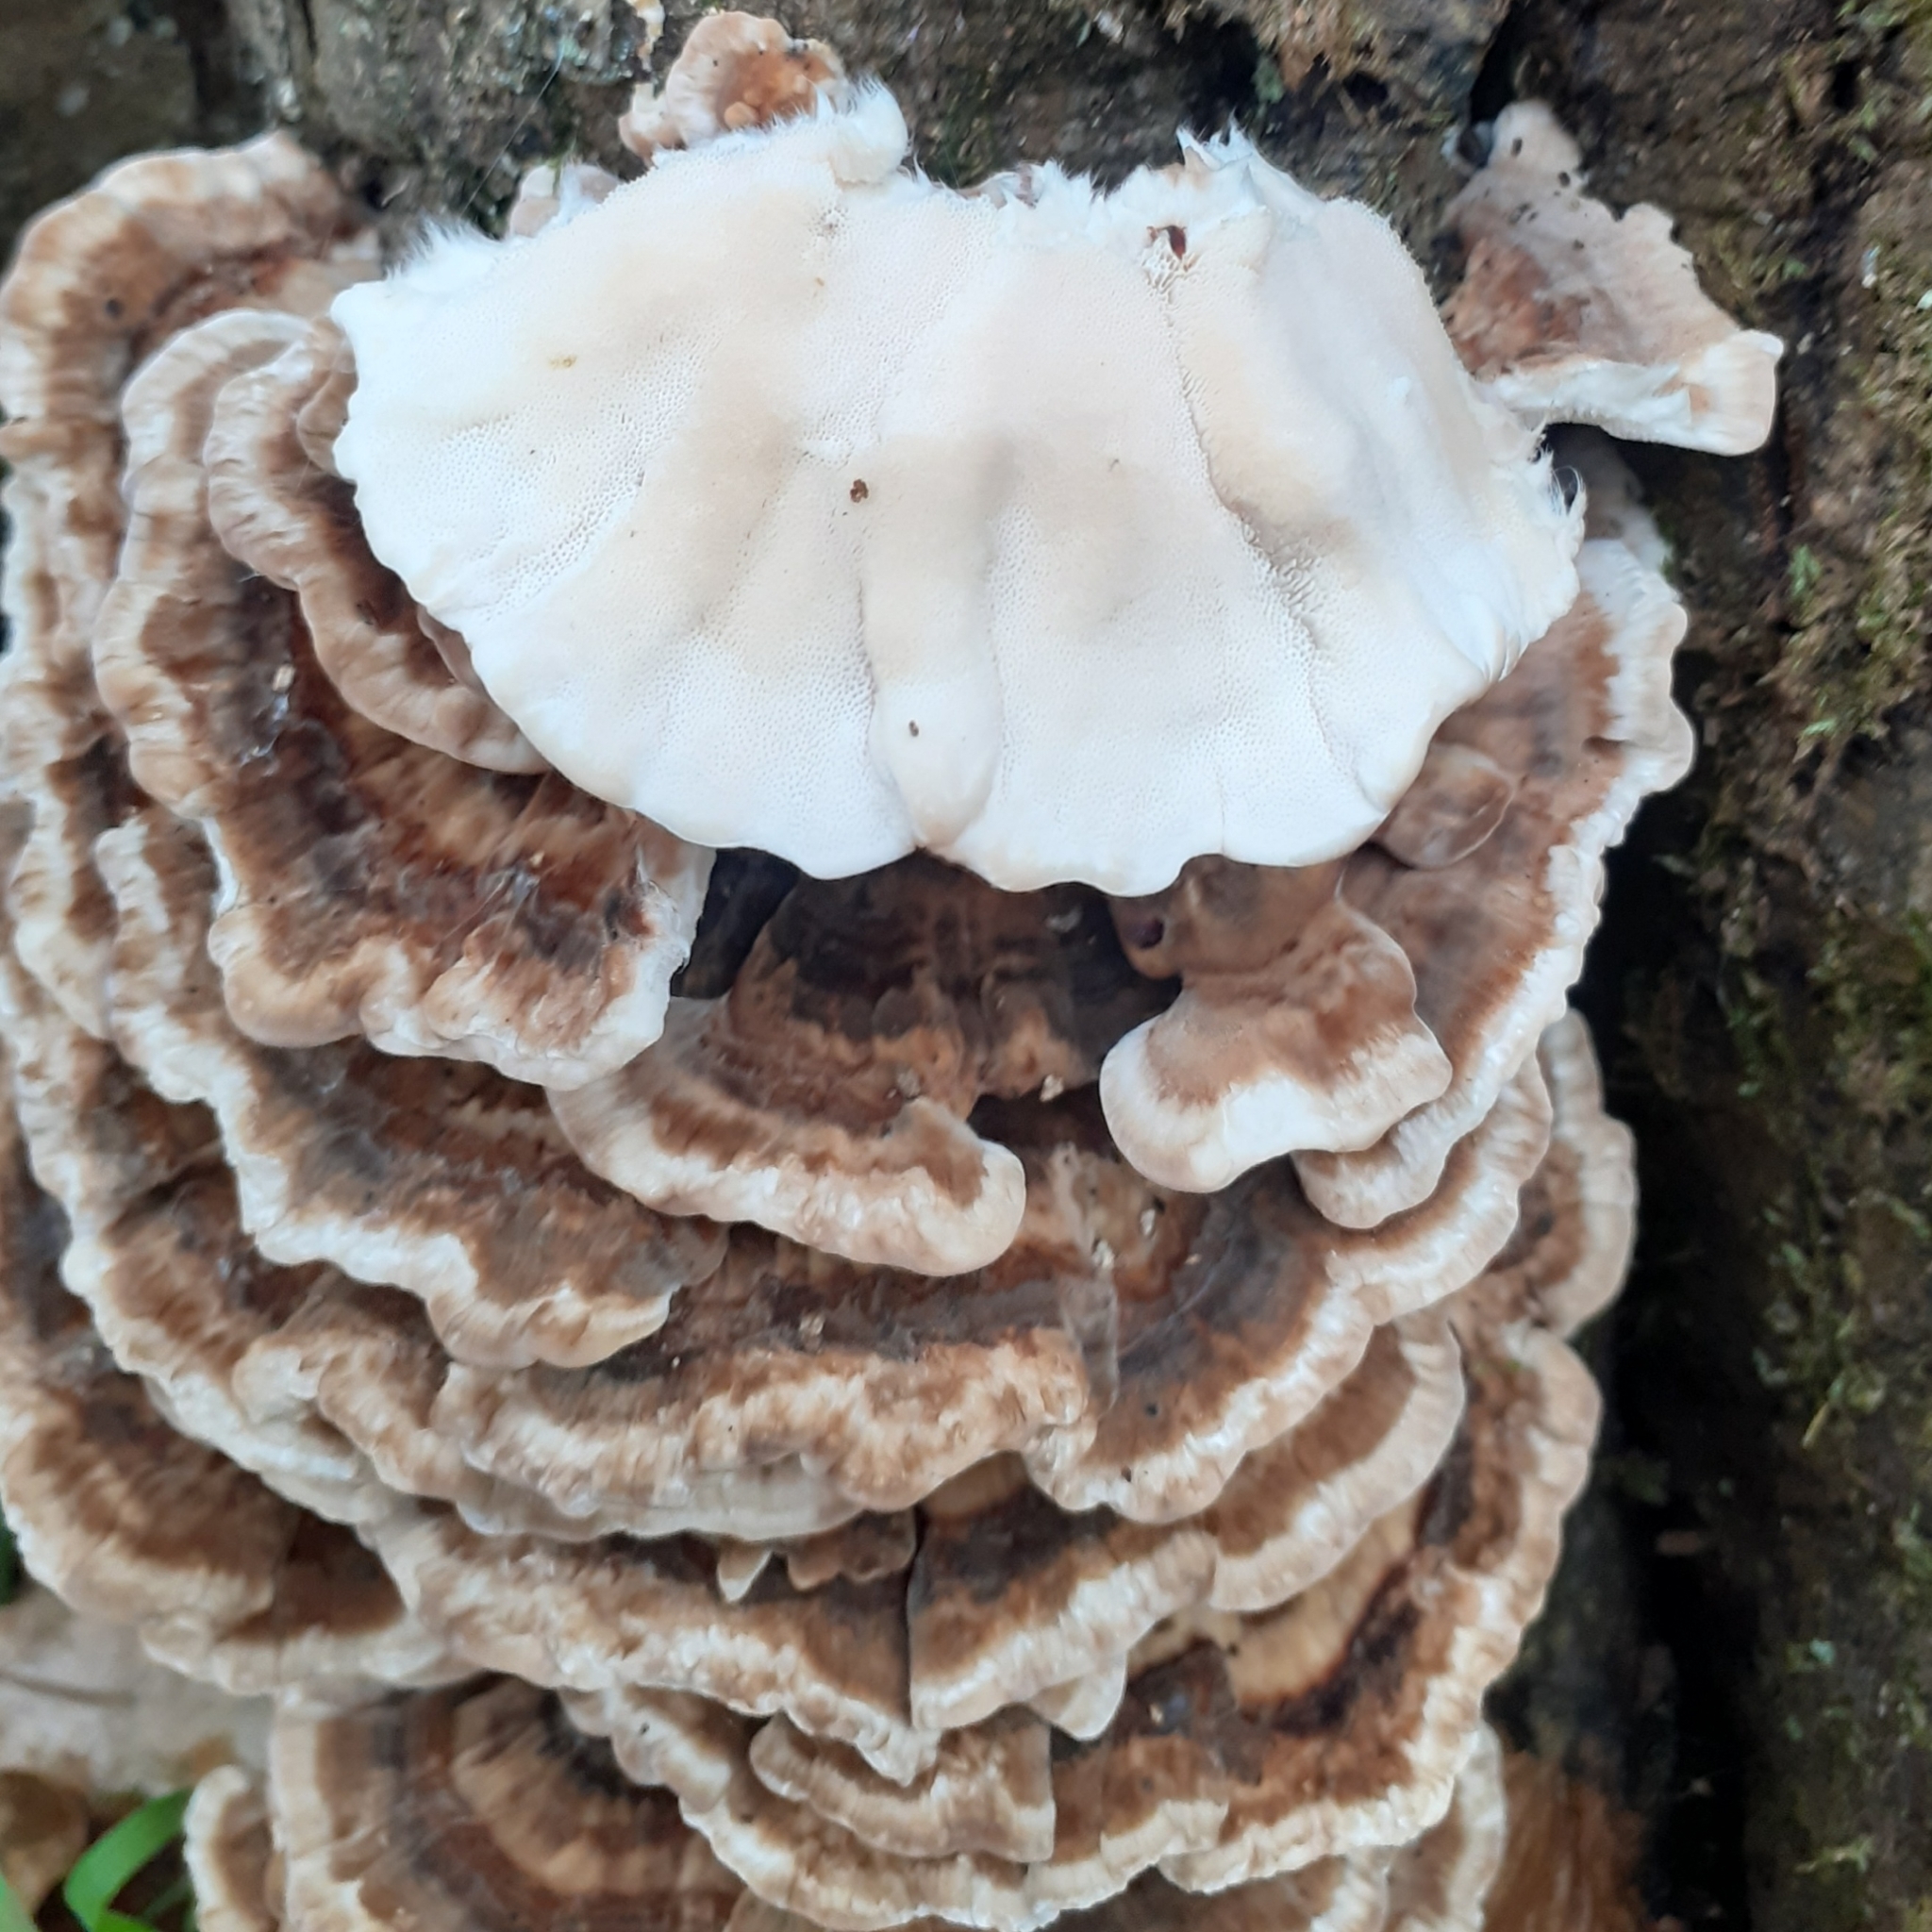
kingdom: Fungi
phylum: Basidiomycota
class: Agaricomycetes
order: Polyporales
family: Polyporaceae
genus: Trametes
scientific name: Trametes versicolor
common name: Turkeytail
